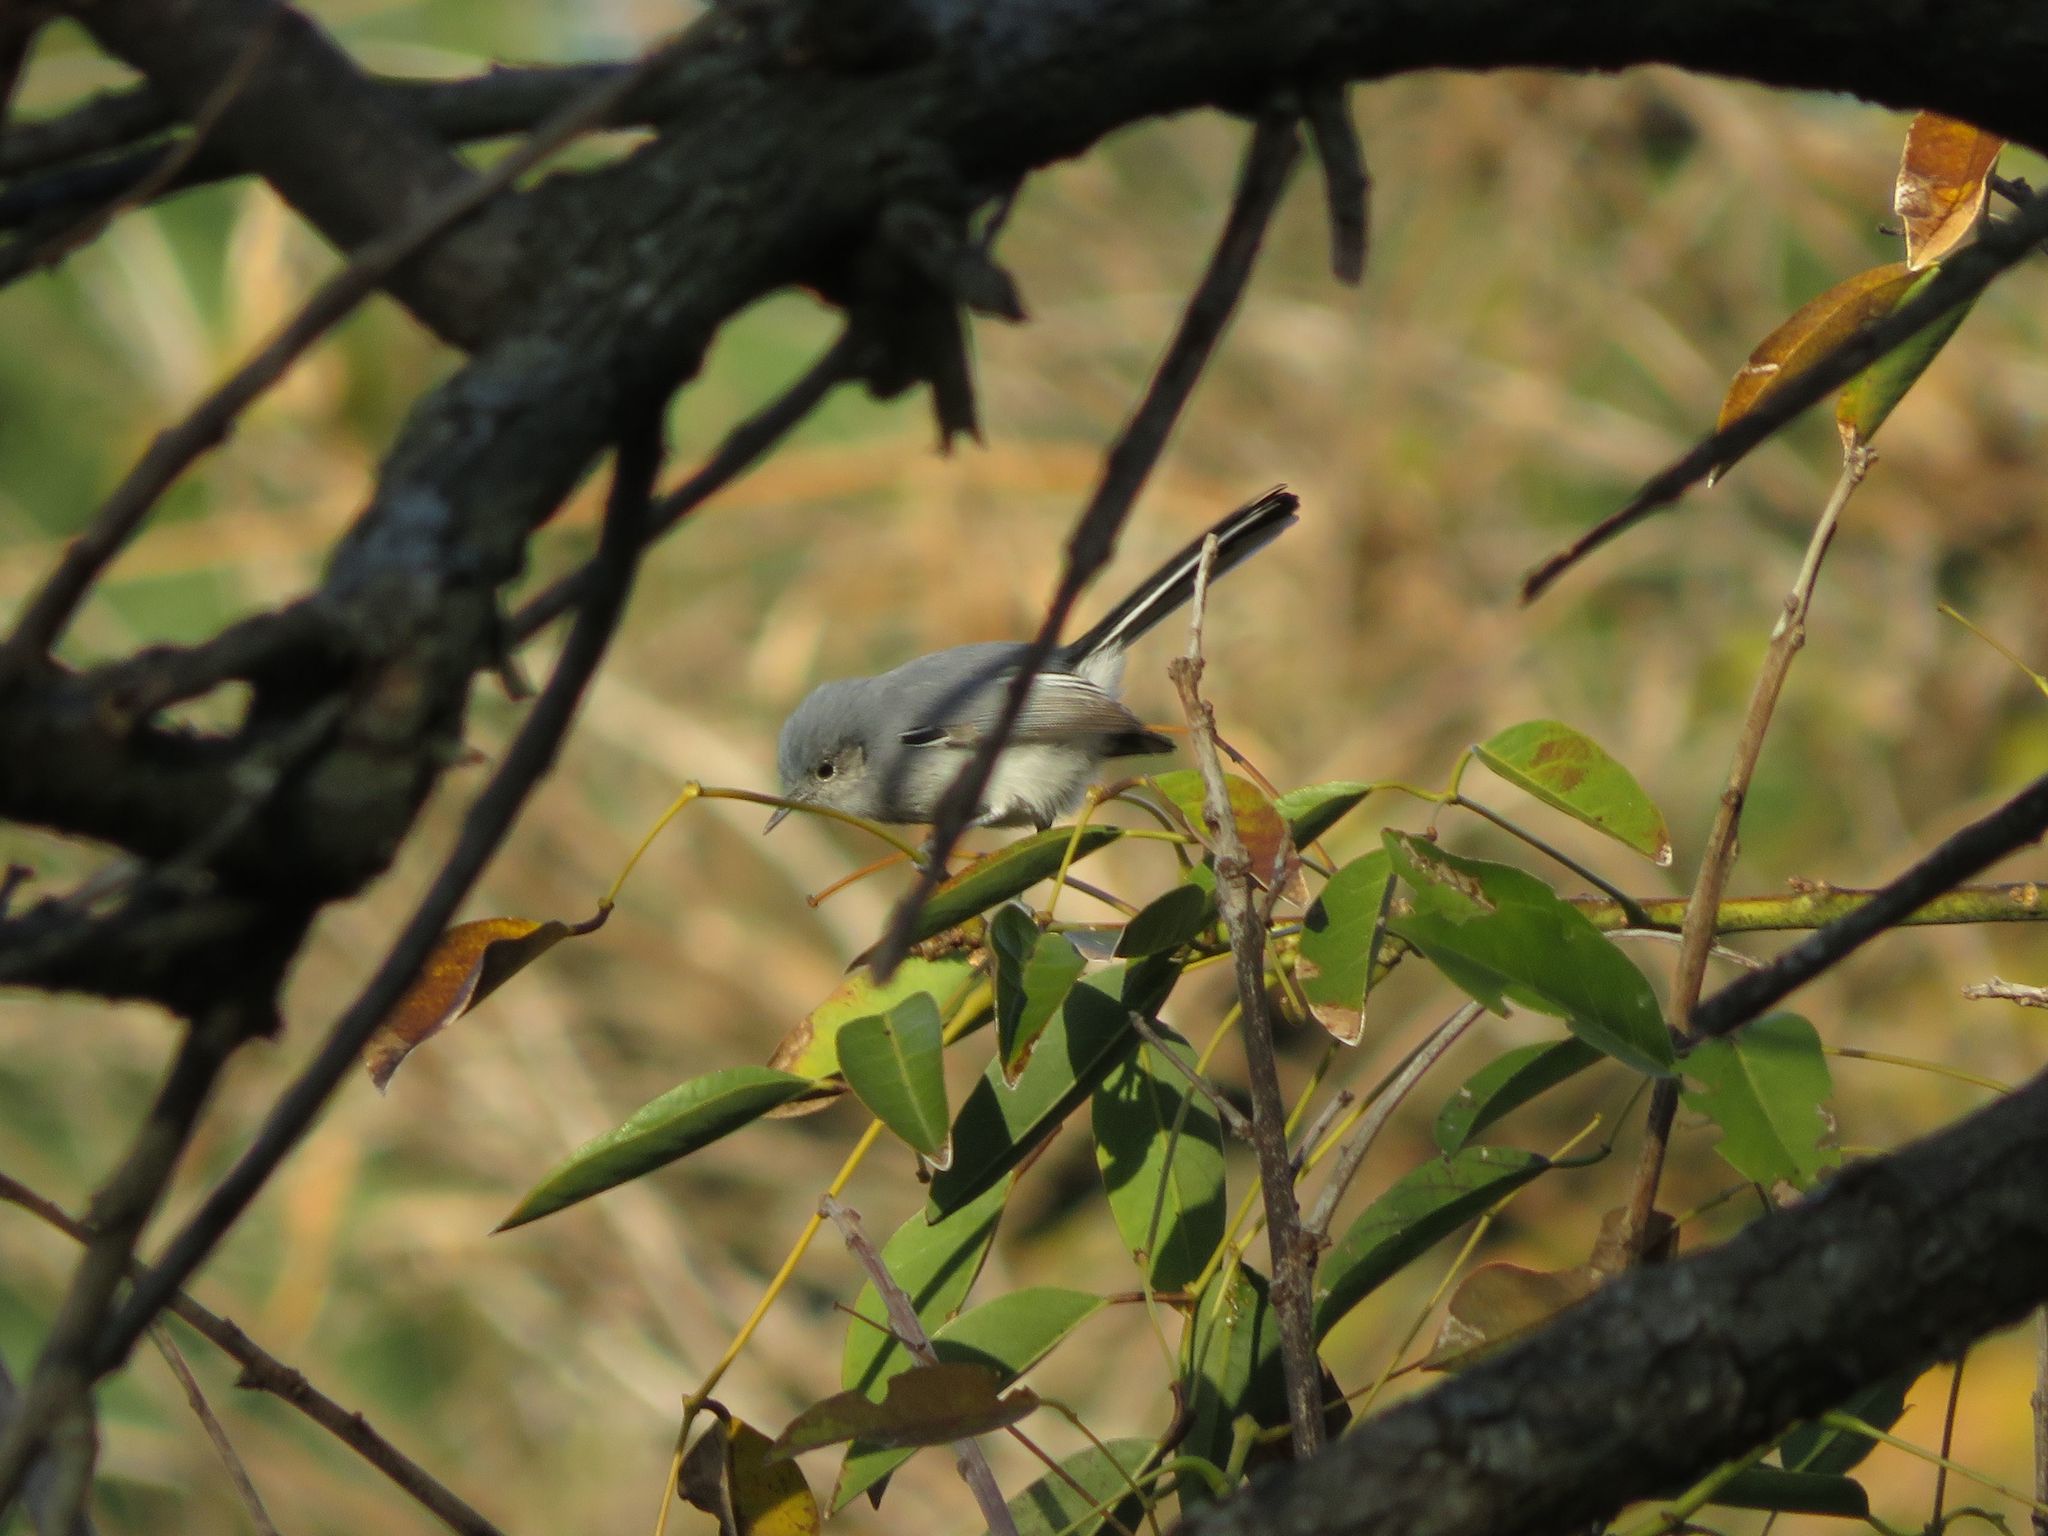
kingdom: Animalia
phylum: Chordata
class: Aves
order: Passeriformes
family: Polioptilidae
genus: Polioptila
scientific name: Polioptila dumicola
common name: Masked gnatcatcher
